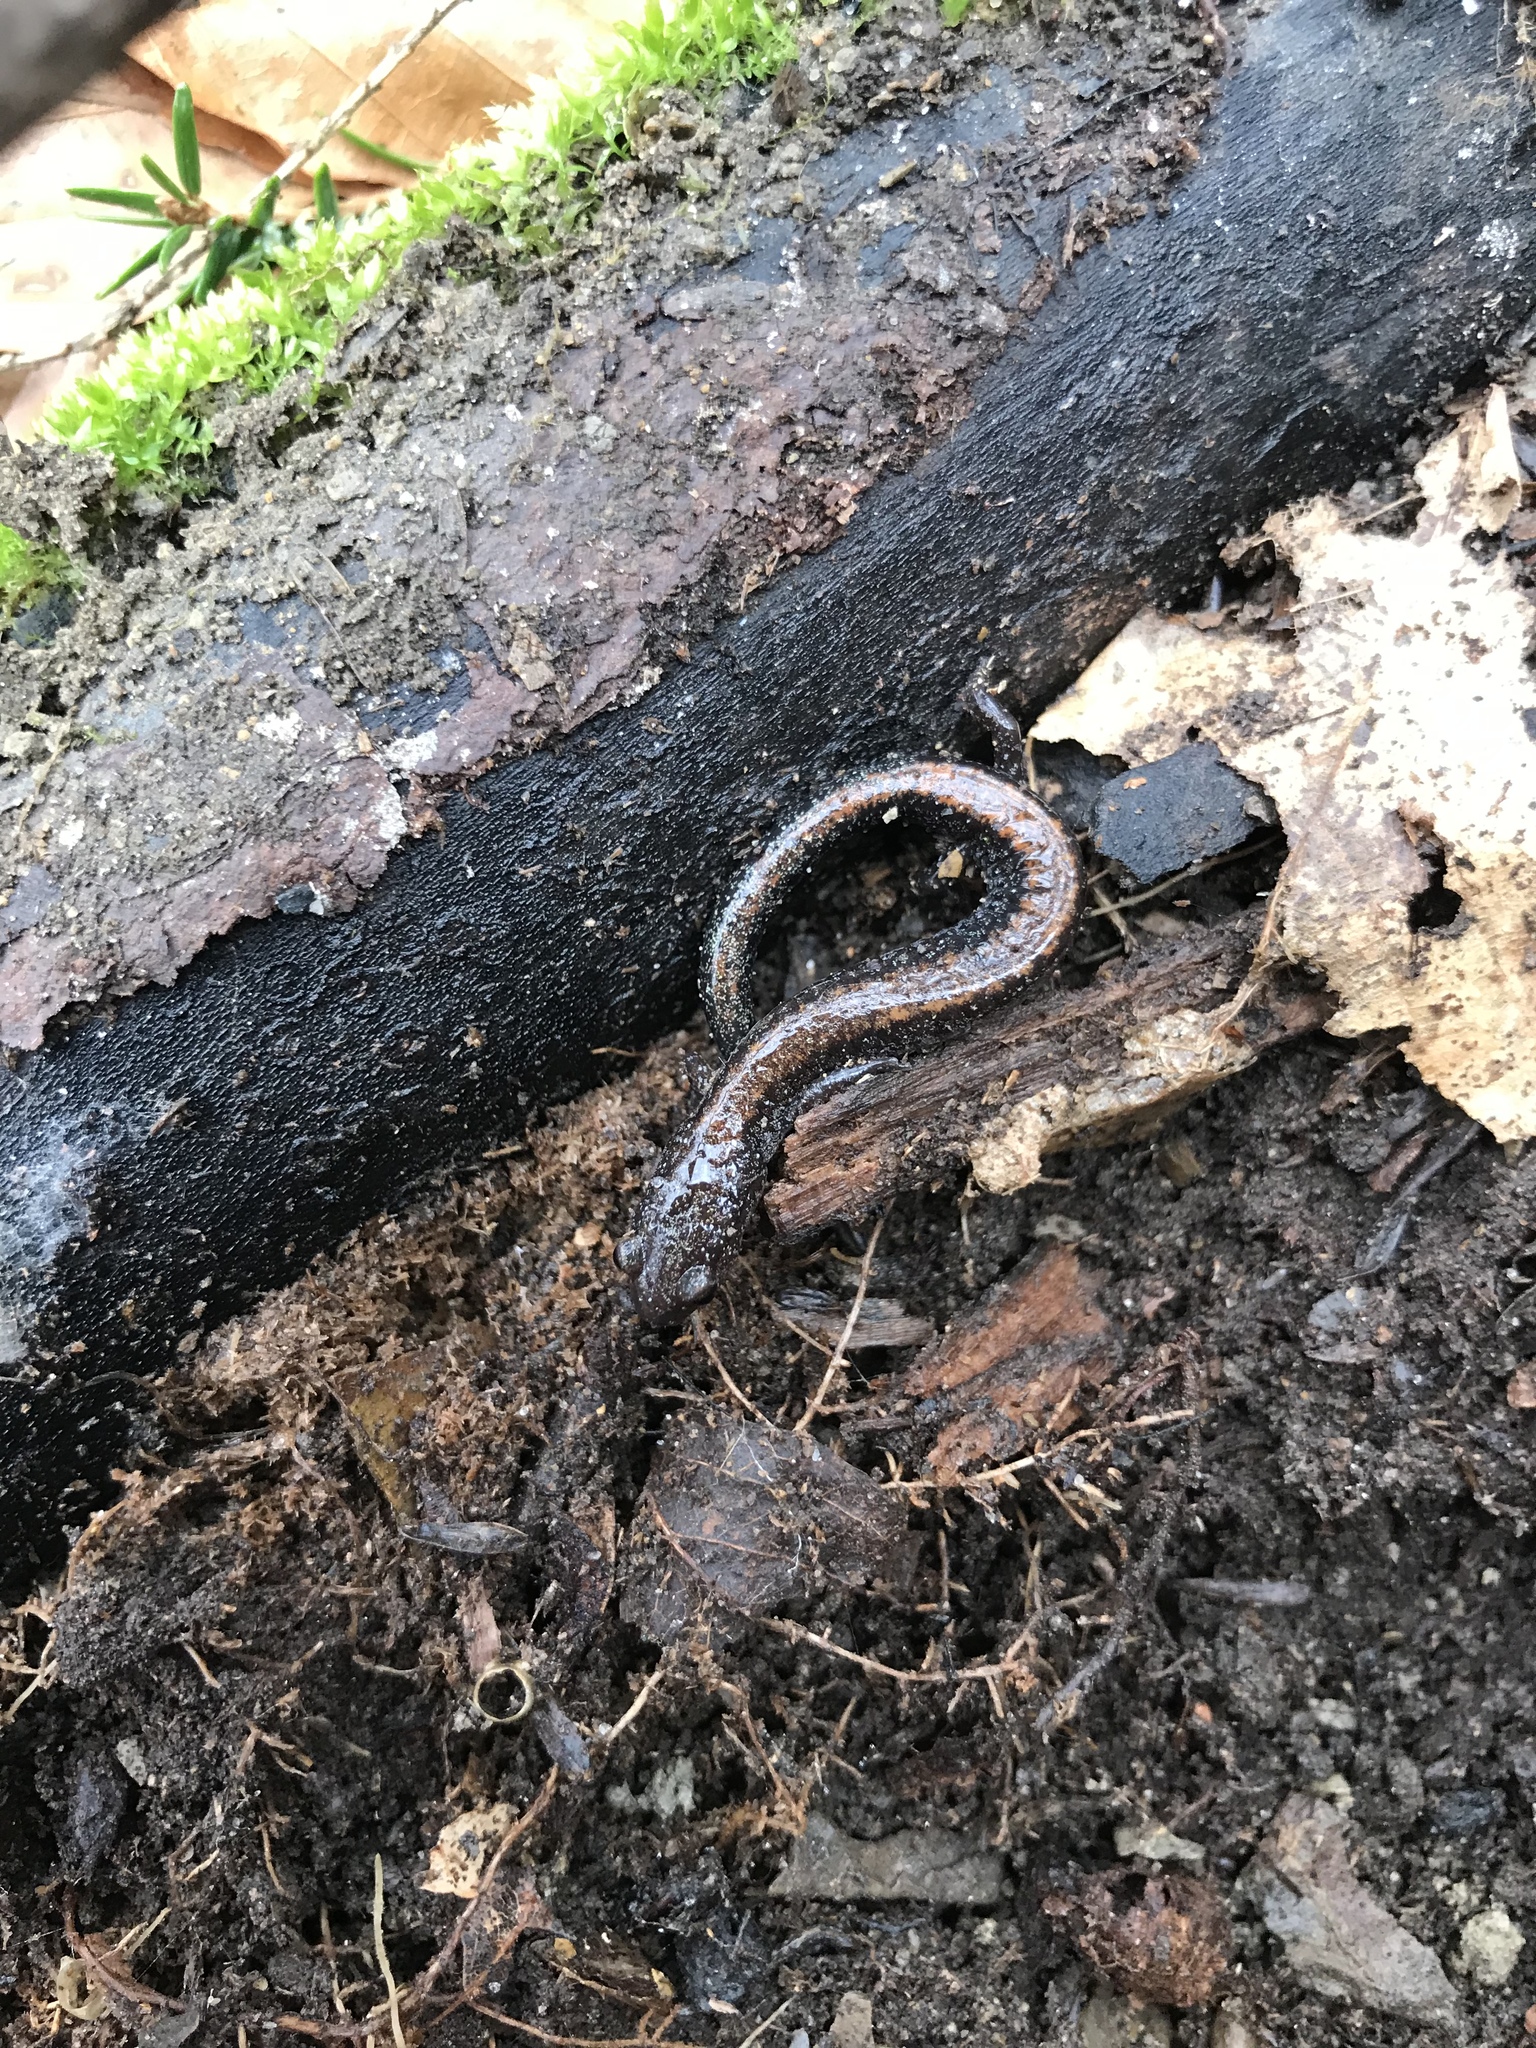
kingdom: Animalia
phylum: Chordata
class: Amphibia
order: Caudata
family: Plethodontidae
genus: Plethodon
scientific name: Plethodon cinereus
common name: Redback salamander
